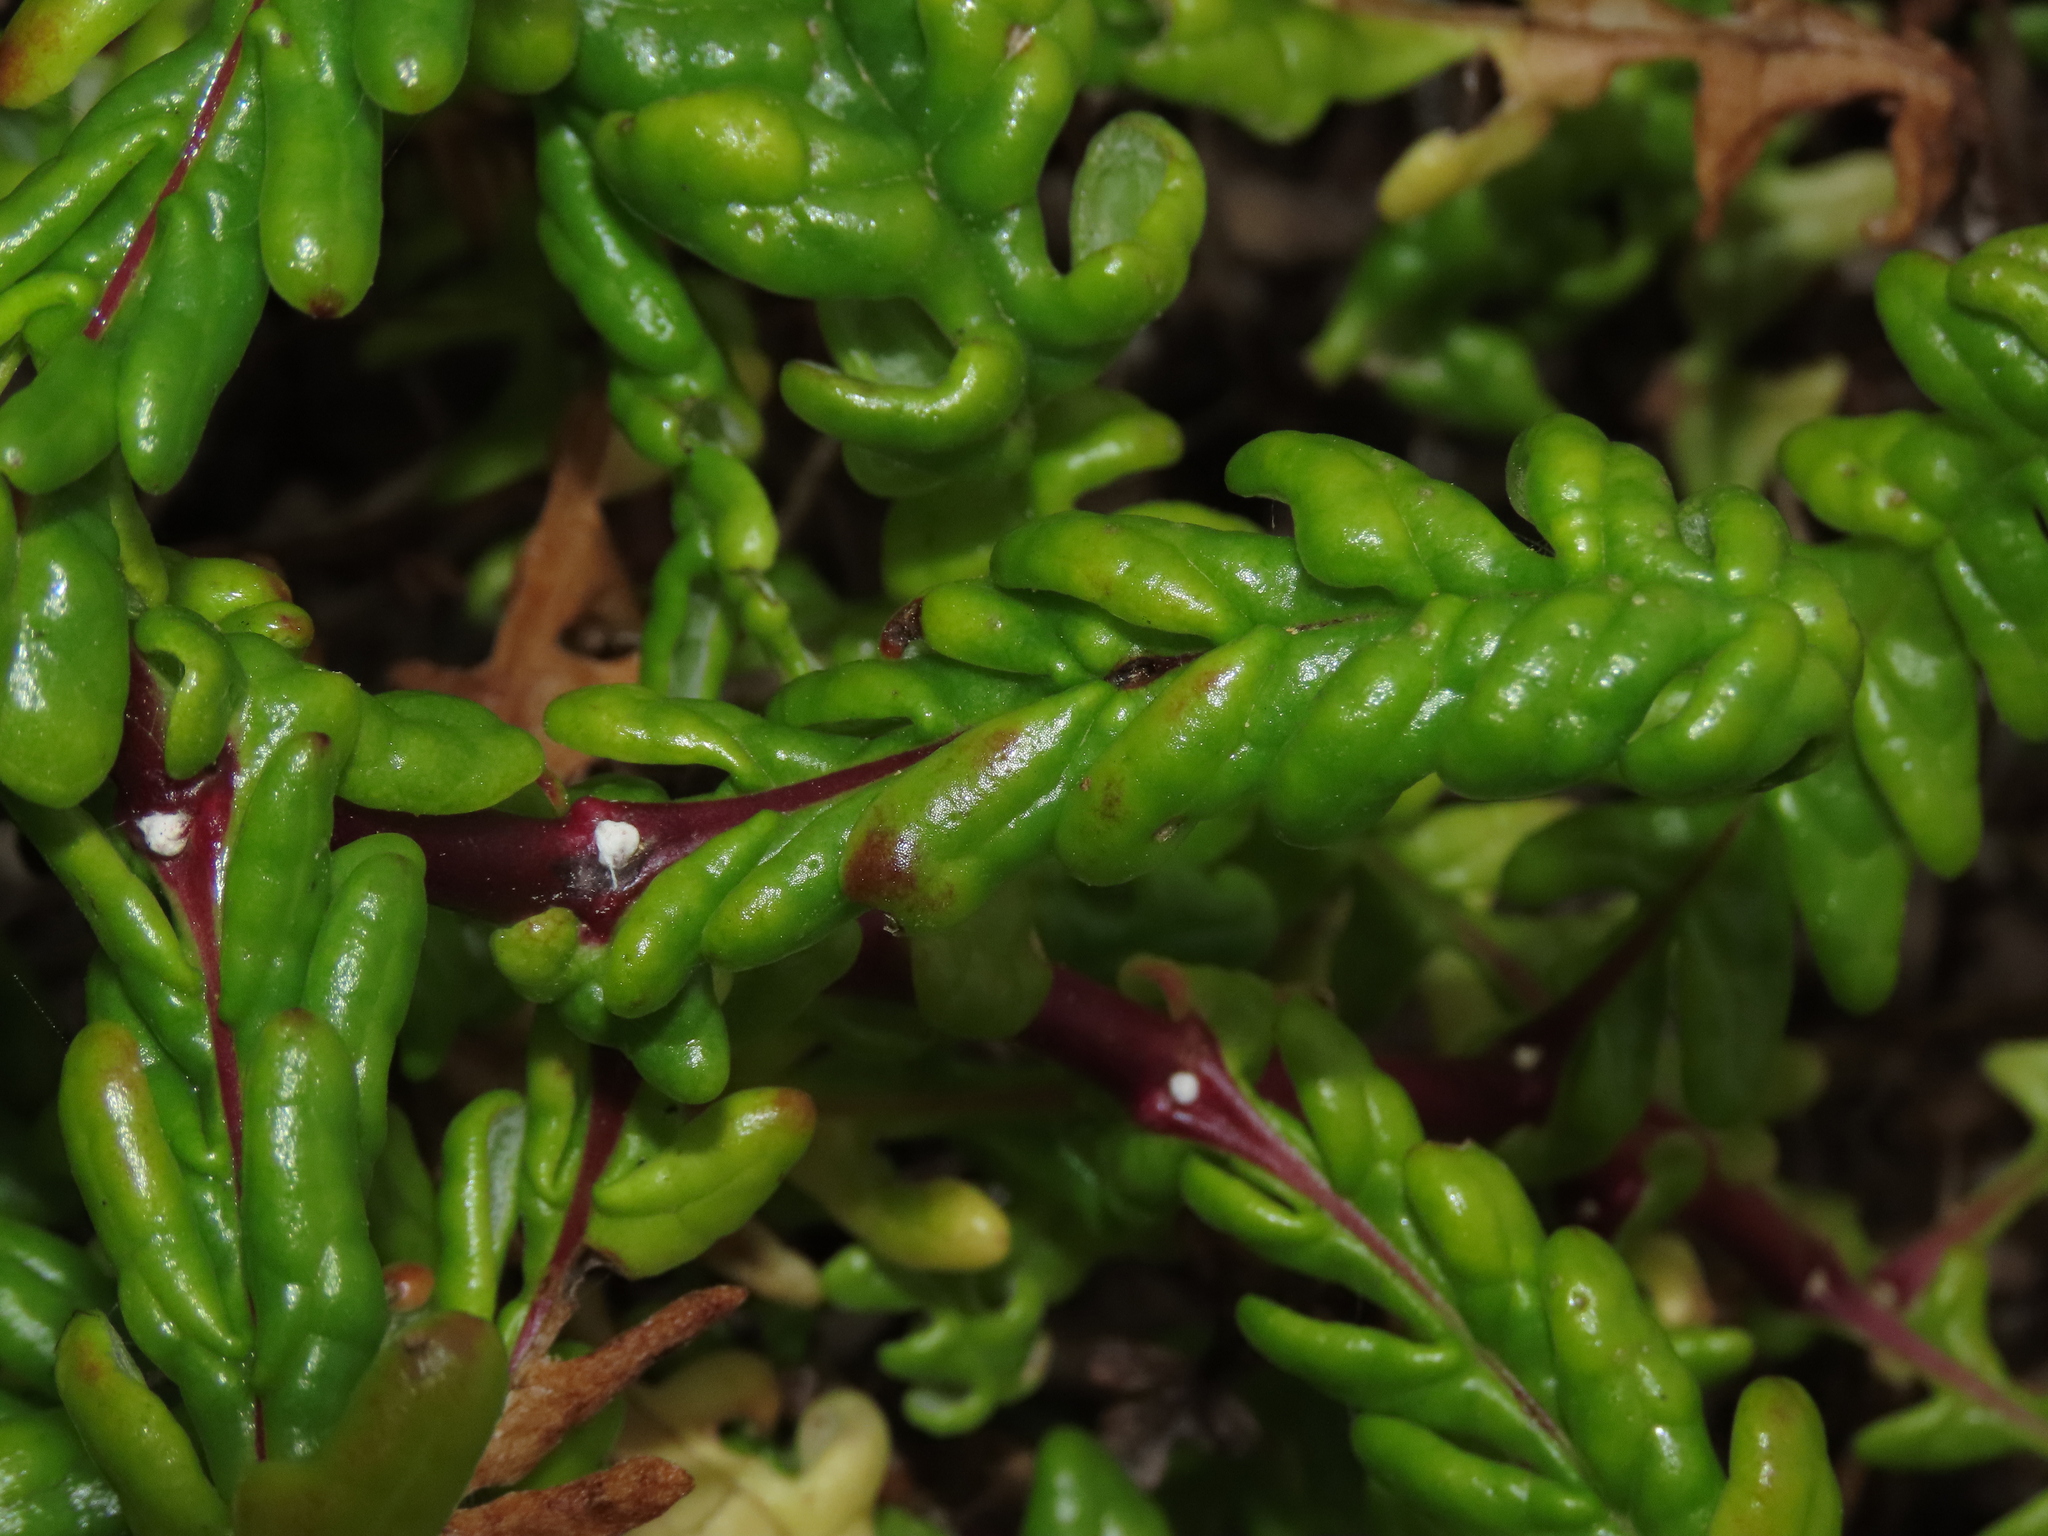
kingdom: Plantae
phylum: Tracheophyta
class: Magnoliopsida
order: Asterales
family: Asteraceae
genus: Polyachyrus
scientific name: Polyachyrus poeppigii
